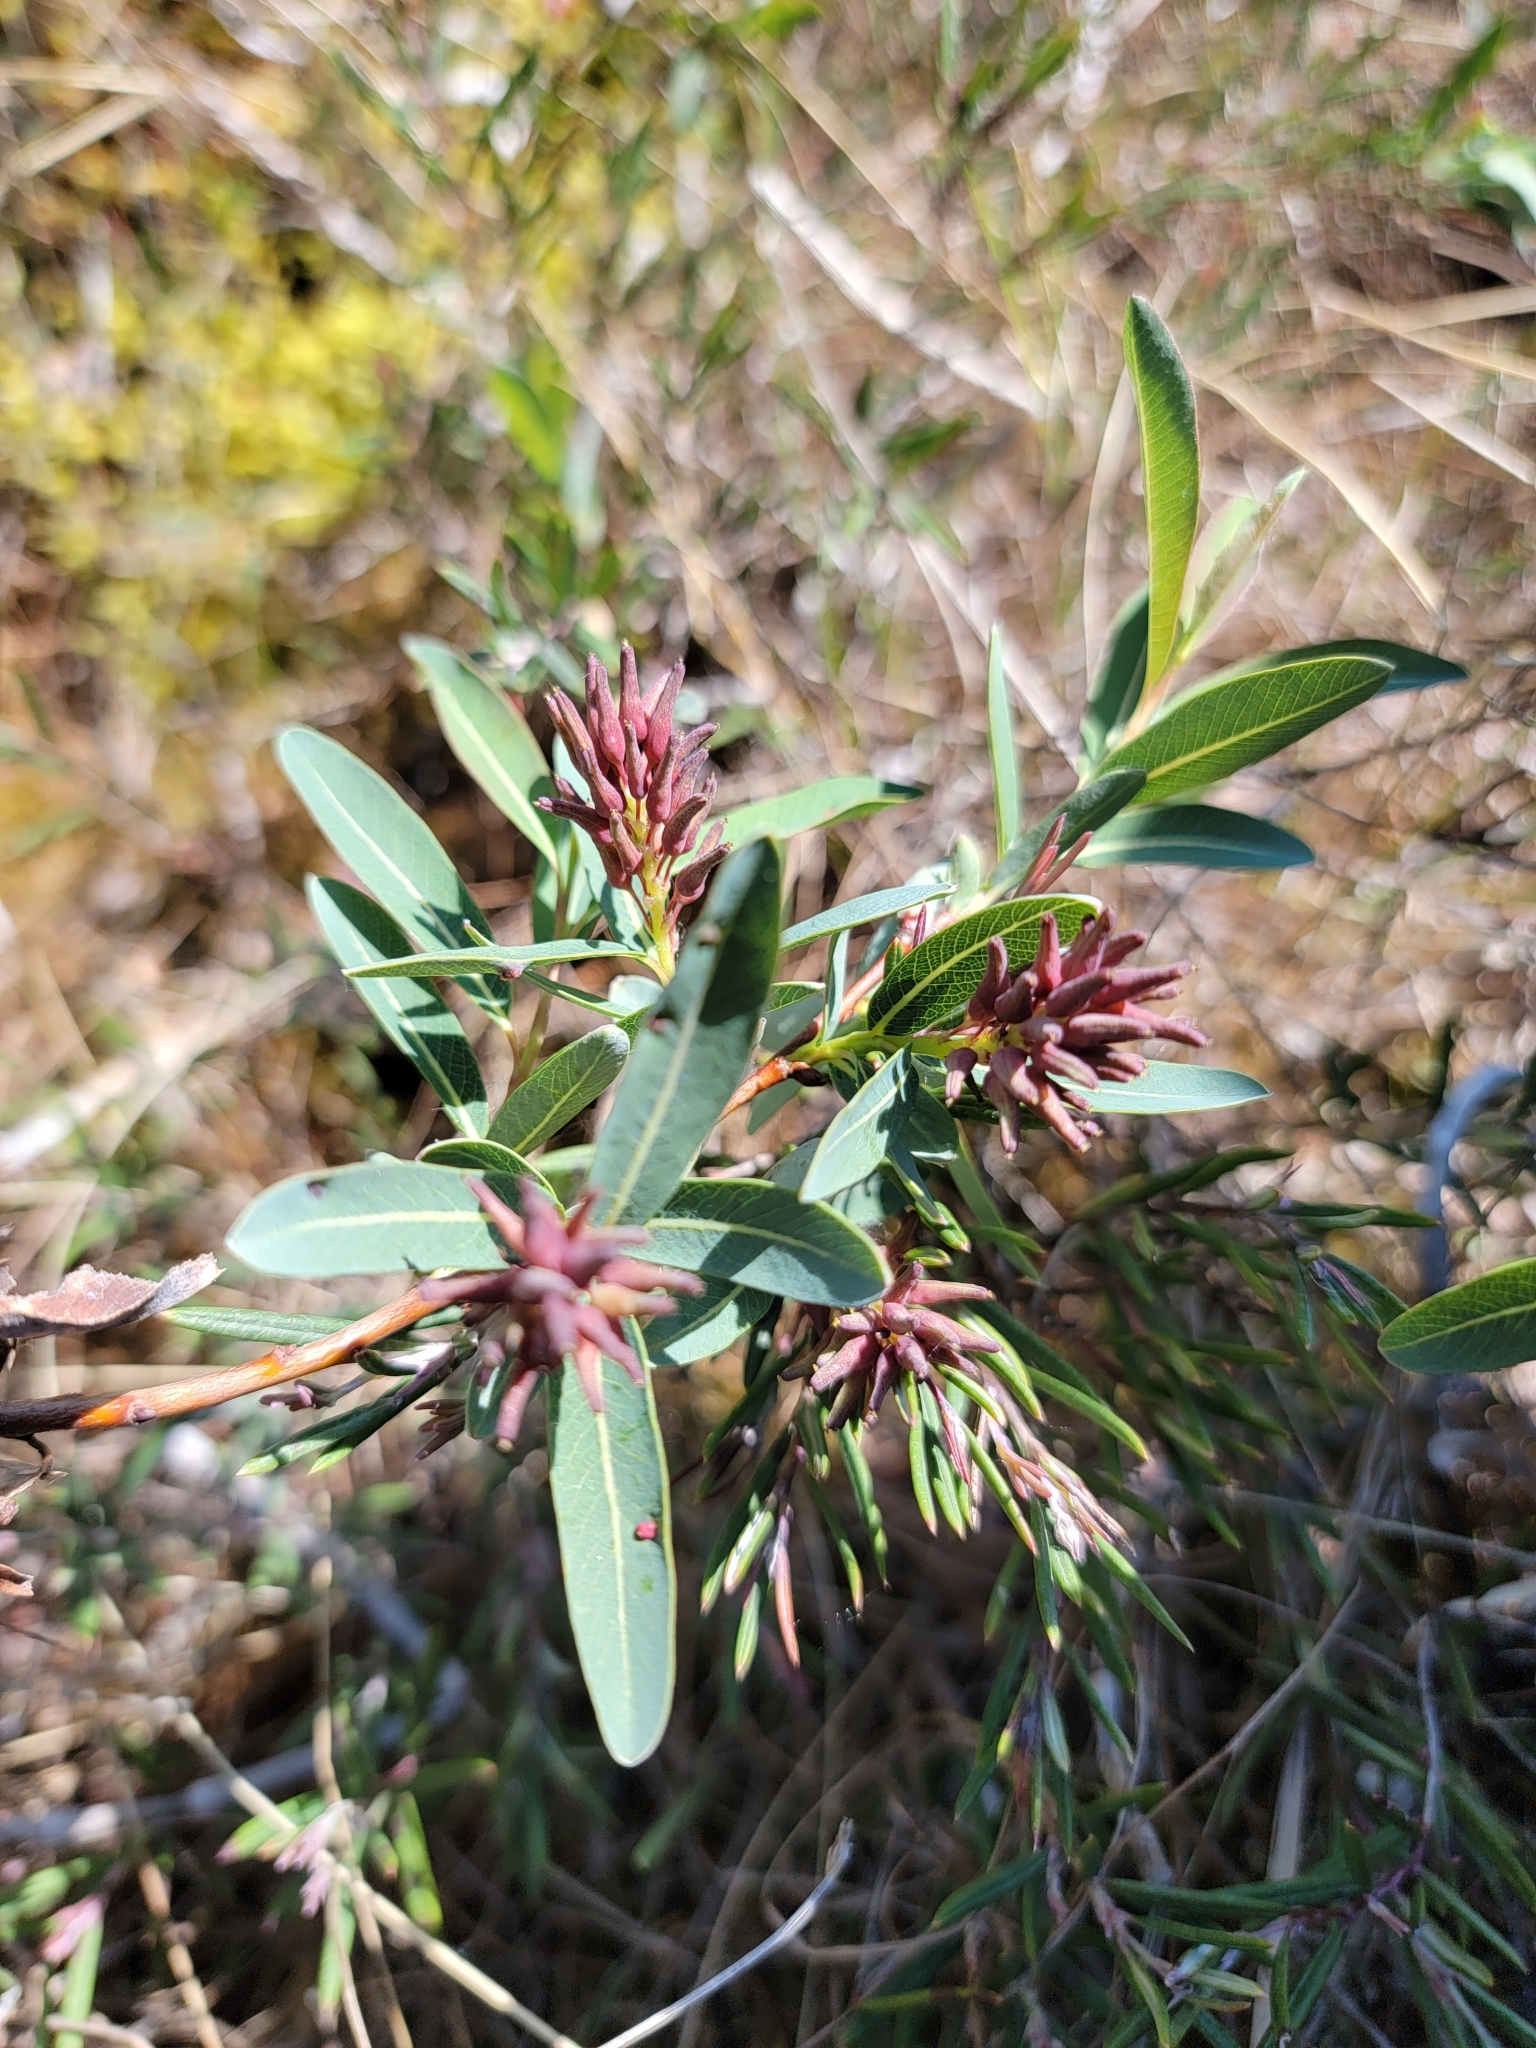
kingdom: Plantae
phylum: Tracheophyta
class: Magnoliopsida
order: Malpighiales
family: Salicaceae
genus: Salix
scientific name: Salix pedicellaris
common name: Bog willow
